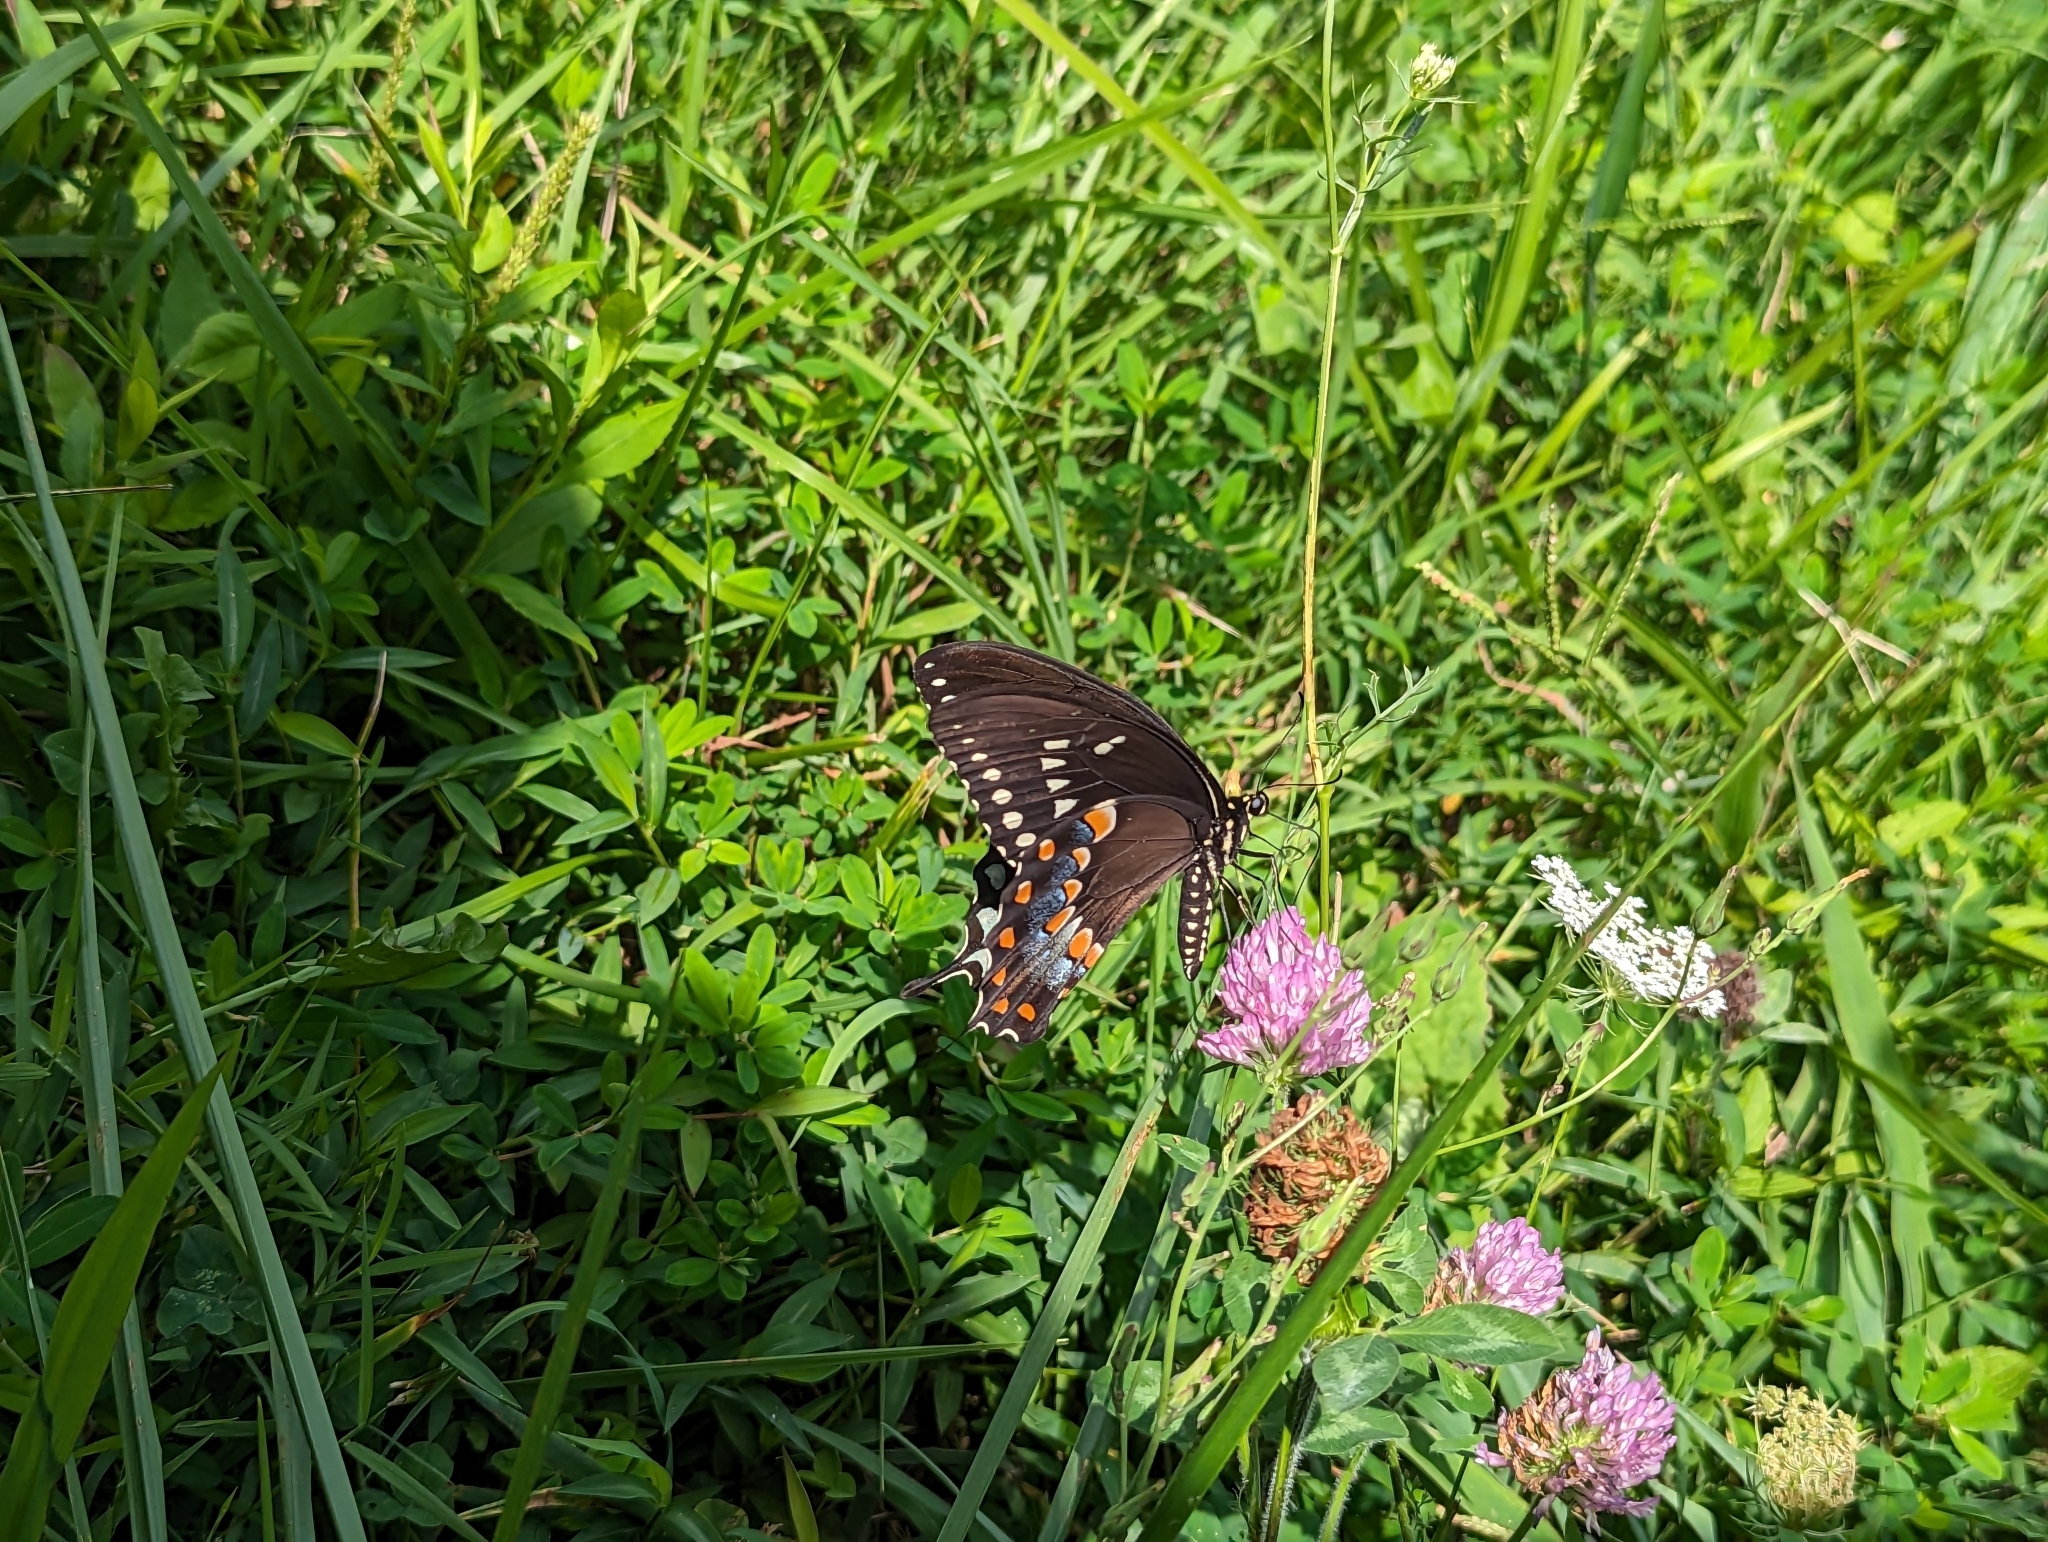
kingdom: Animalia
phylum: Arthropoda
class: Insecta
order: Lepidoptera
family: Papilionidae
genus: Papilio
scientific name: Papilio troilus
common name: Spicebush swallowtail
